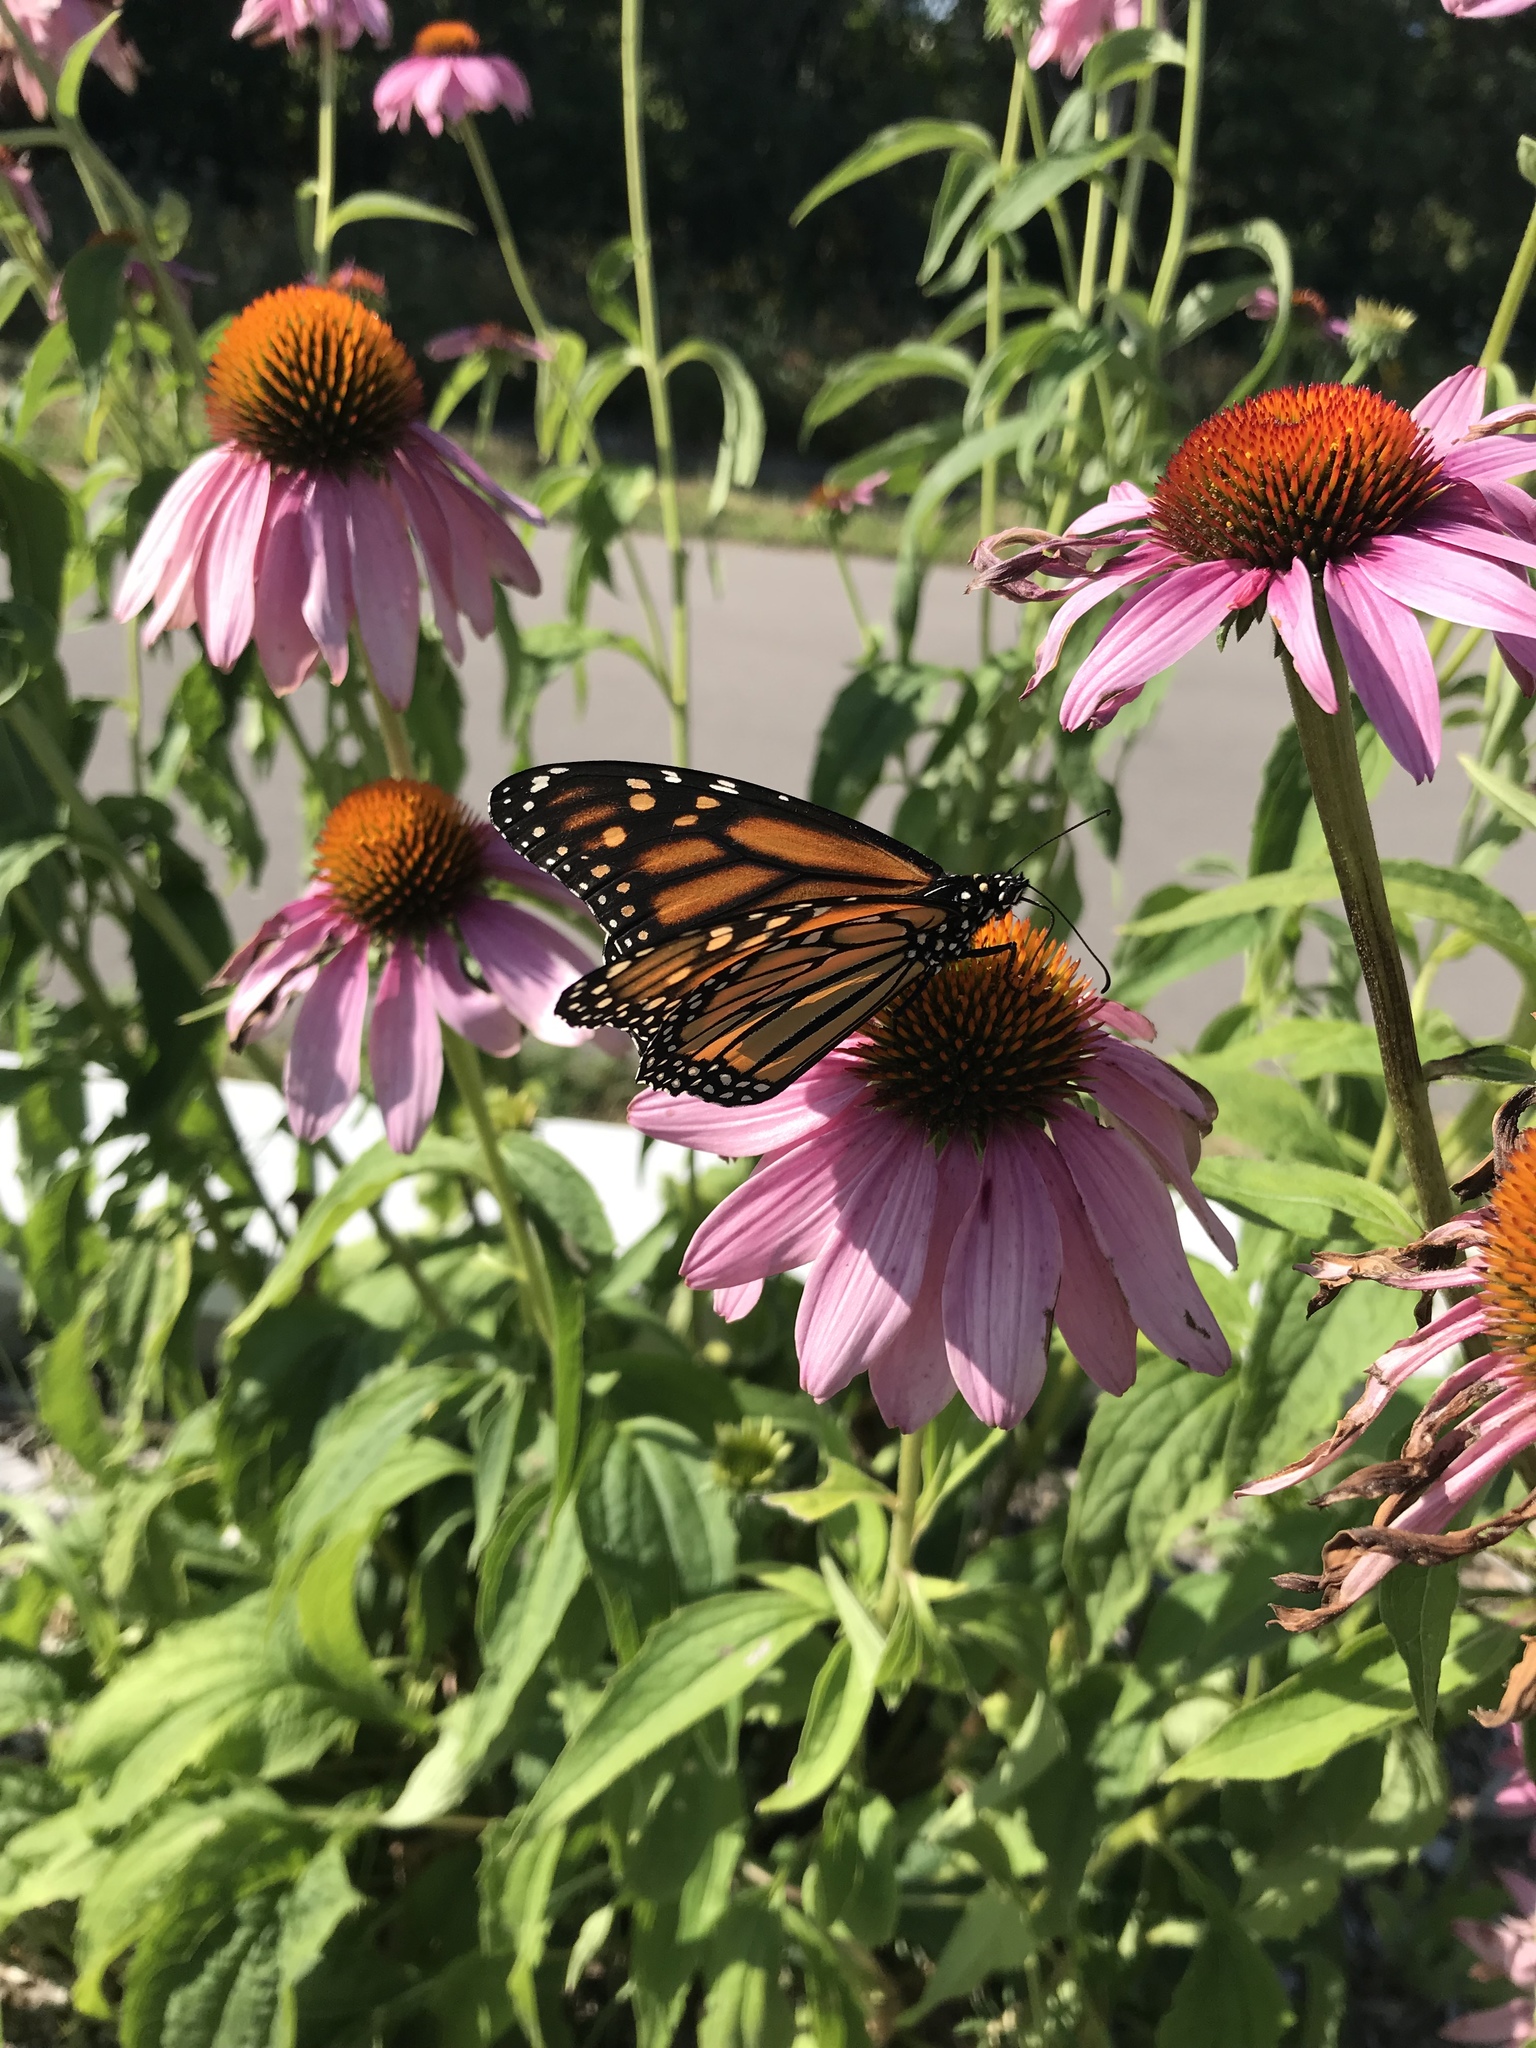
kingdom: Animalia
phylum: Arthropoda
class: Insecta
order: Lepidoptera
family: Nymphalidae
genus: Danaus
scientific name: Danaus plexippus
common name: Monarch
